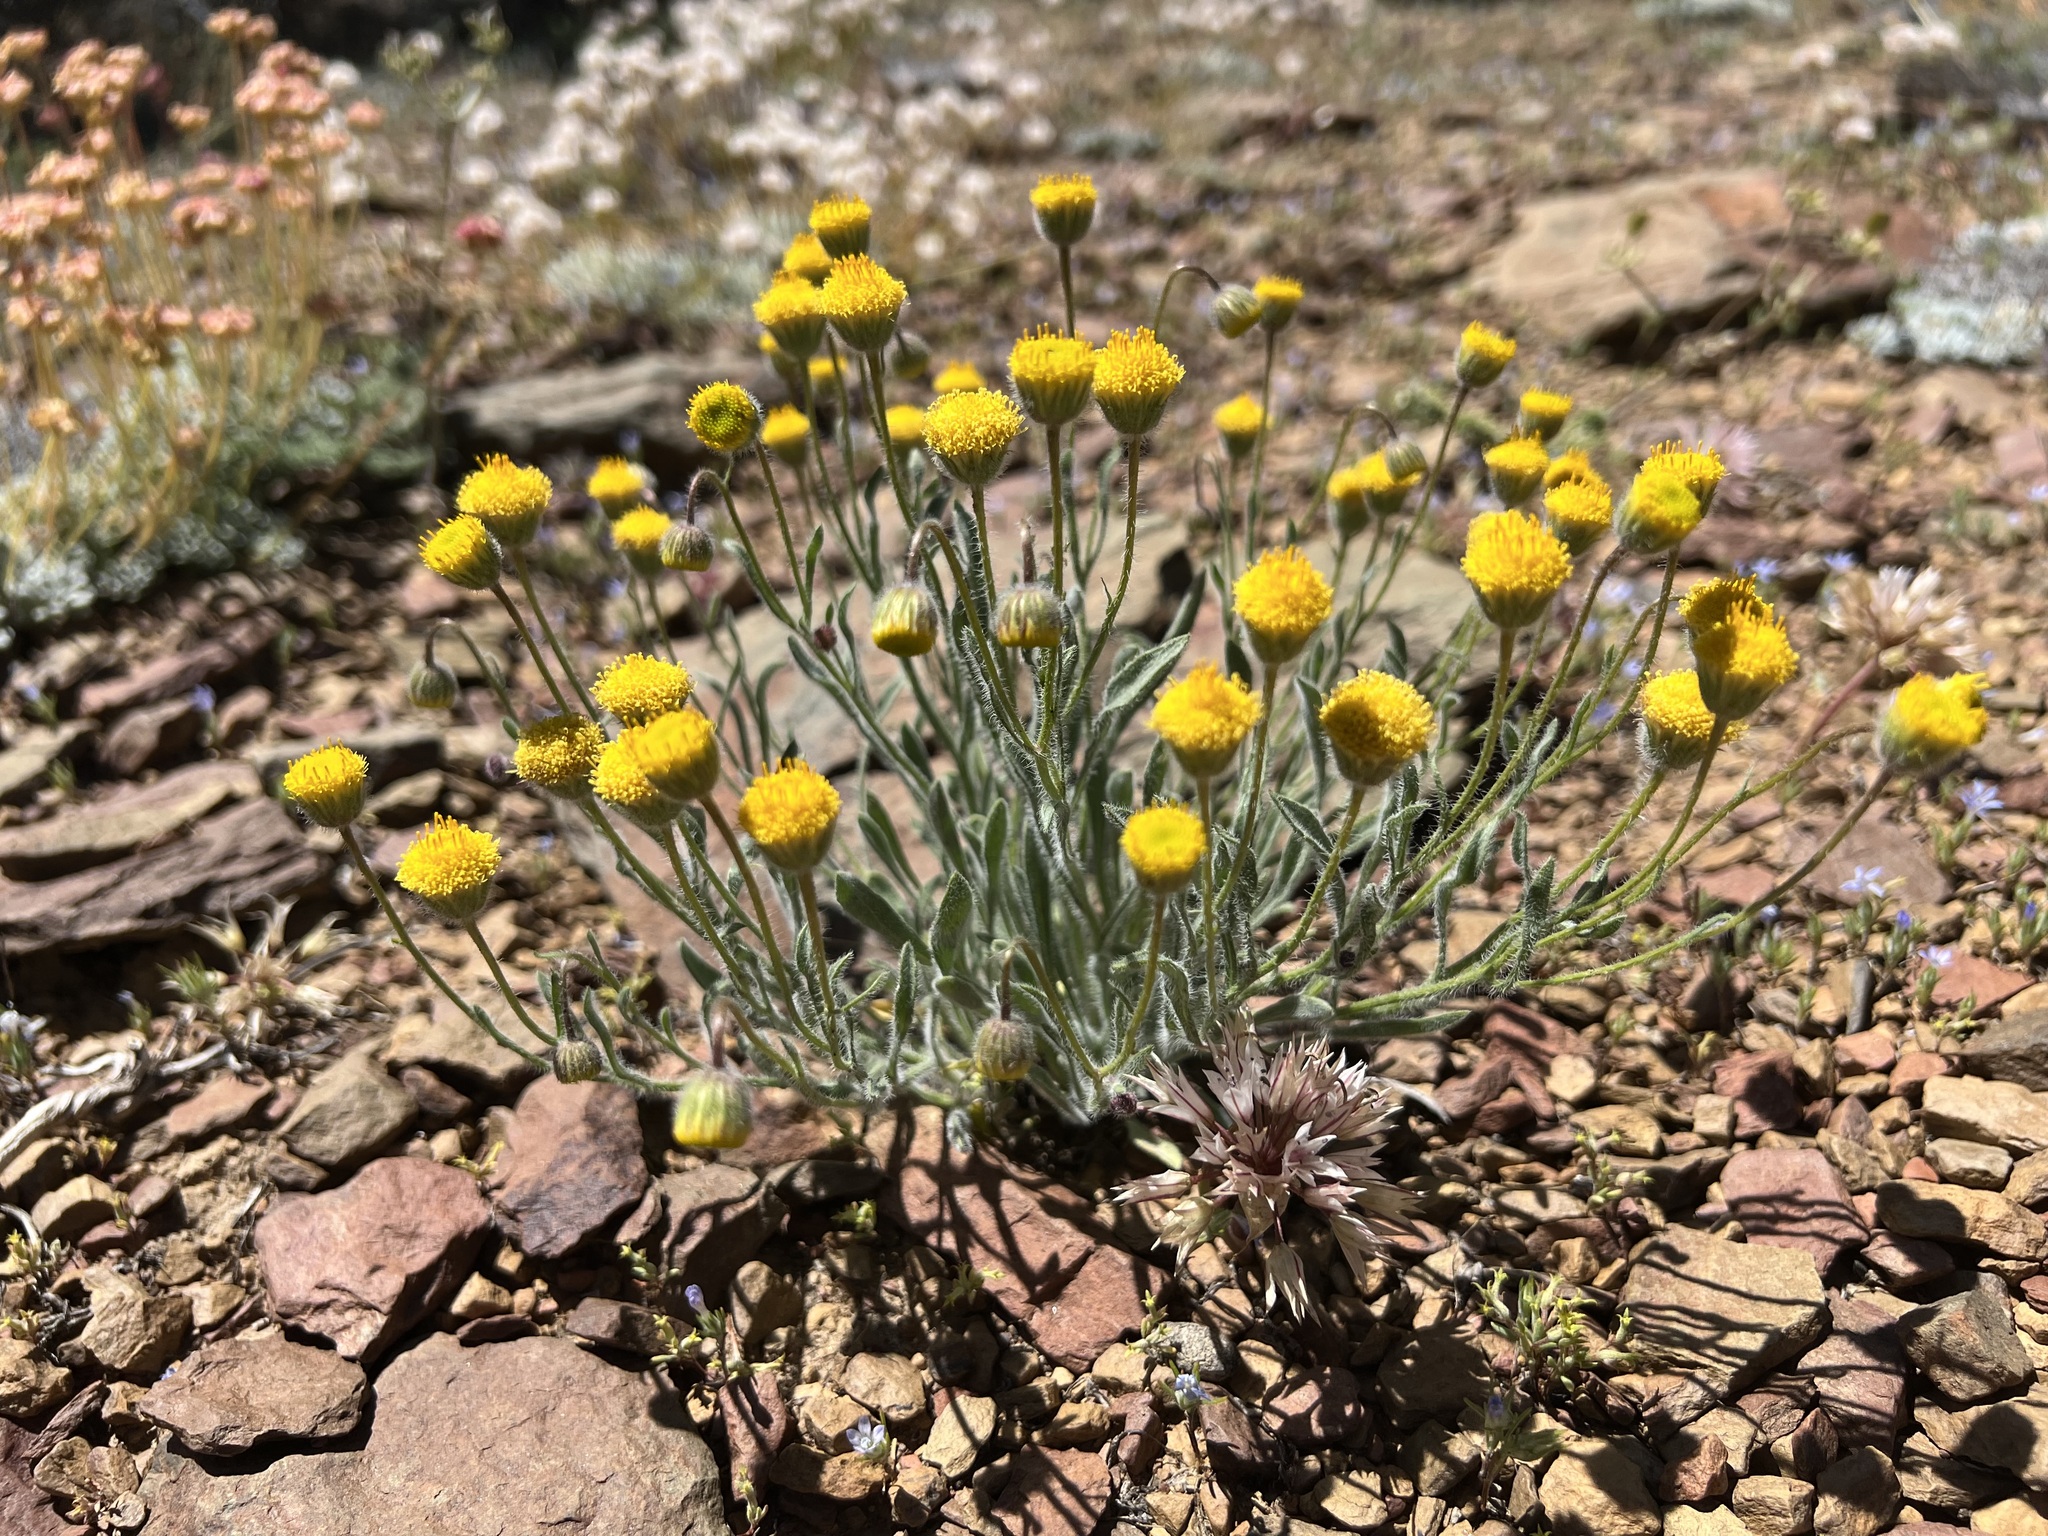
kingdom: Plantae
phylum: Tracheophyta
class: Magnoliopsida
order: Asterales
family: Asteraceae
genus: Erigeron
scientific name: Erigeron aphanactis
